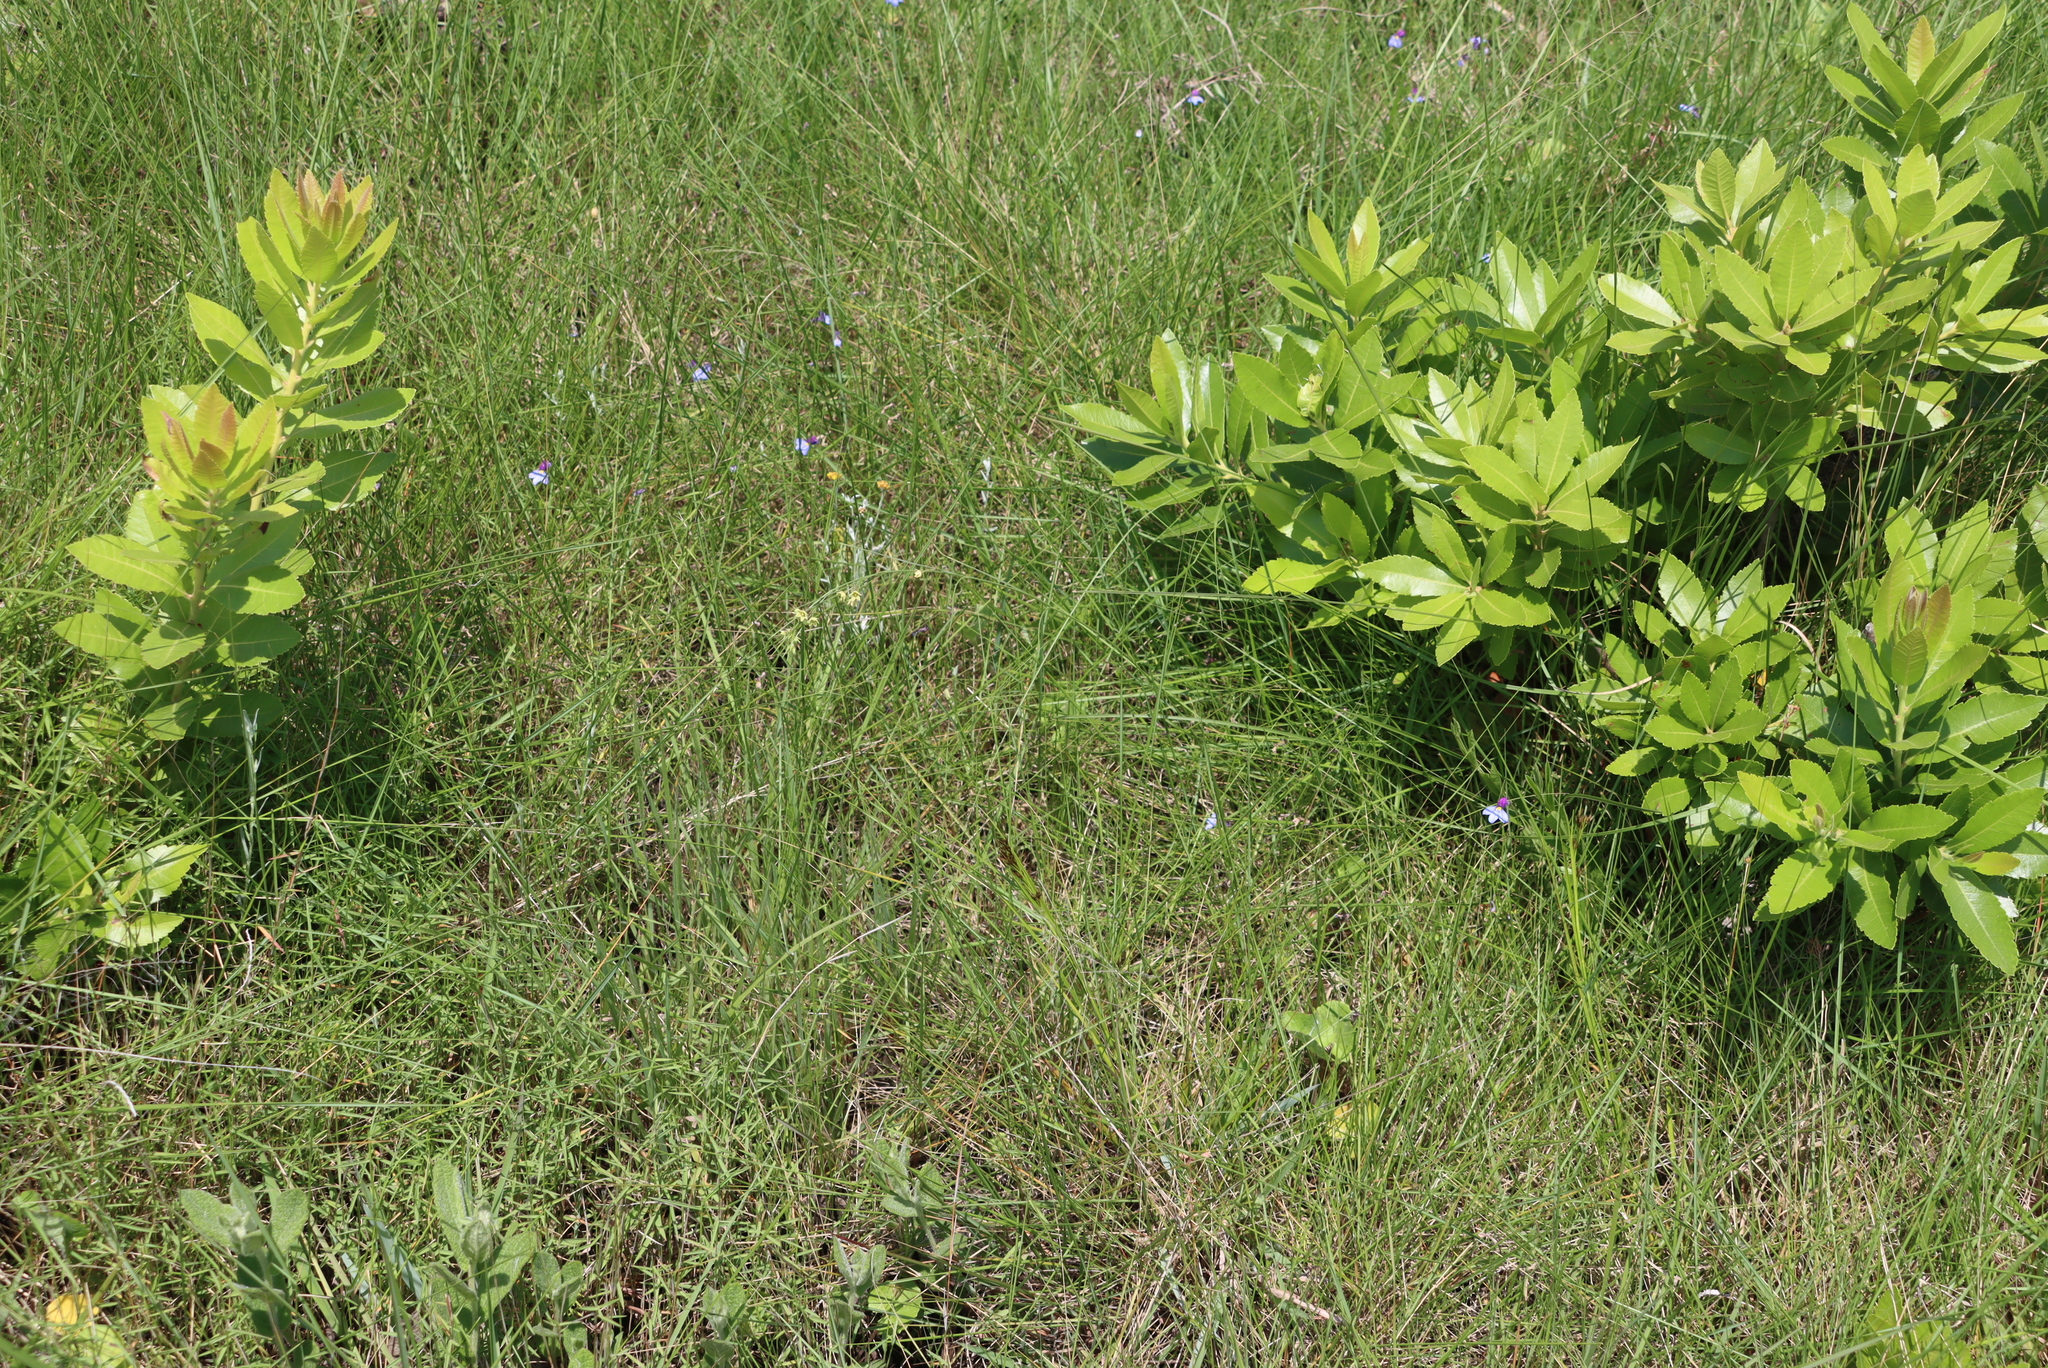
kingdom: Plantae
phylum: Tracheophyta
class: Magnoliopsida
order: Fagales
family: Myricaceae
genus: Morella
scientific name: Morella pilulifera
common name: Broad-leaved waxberry
